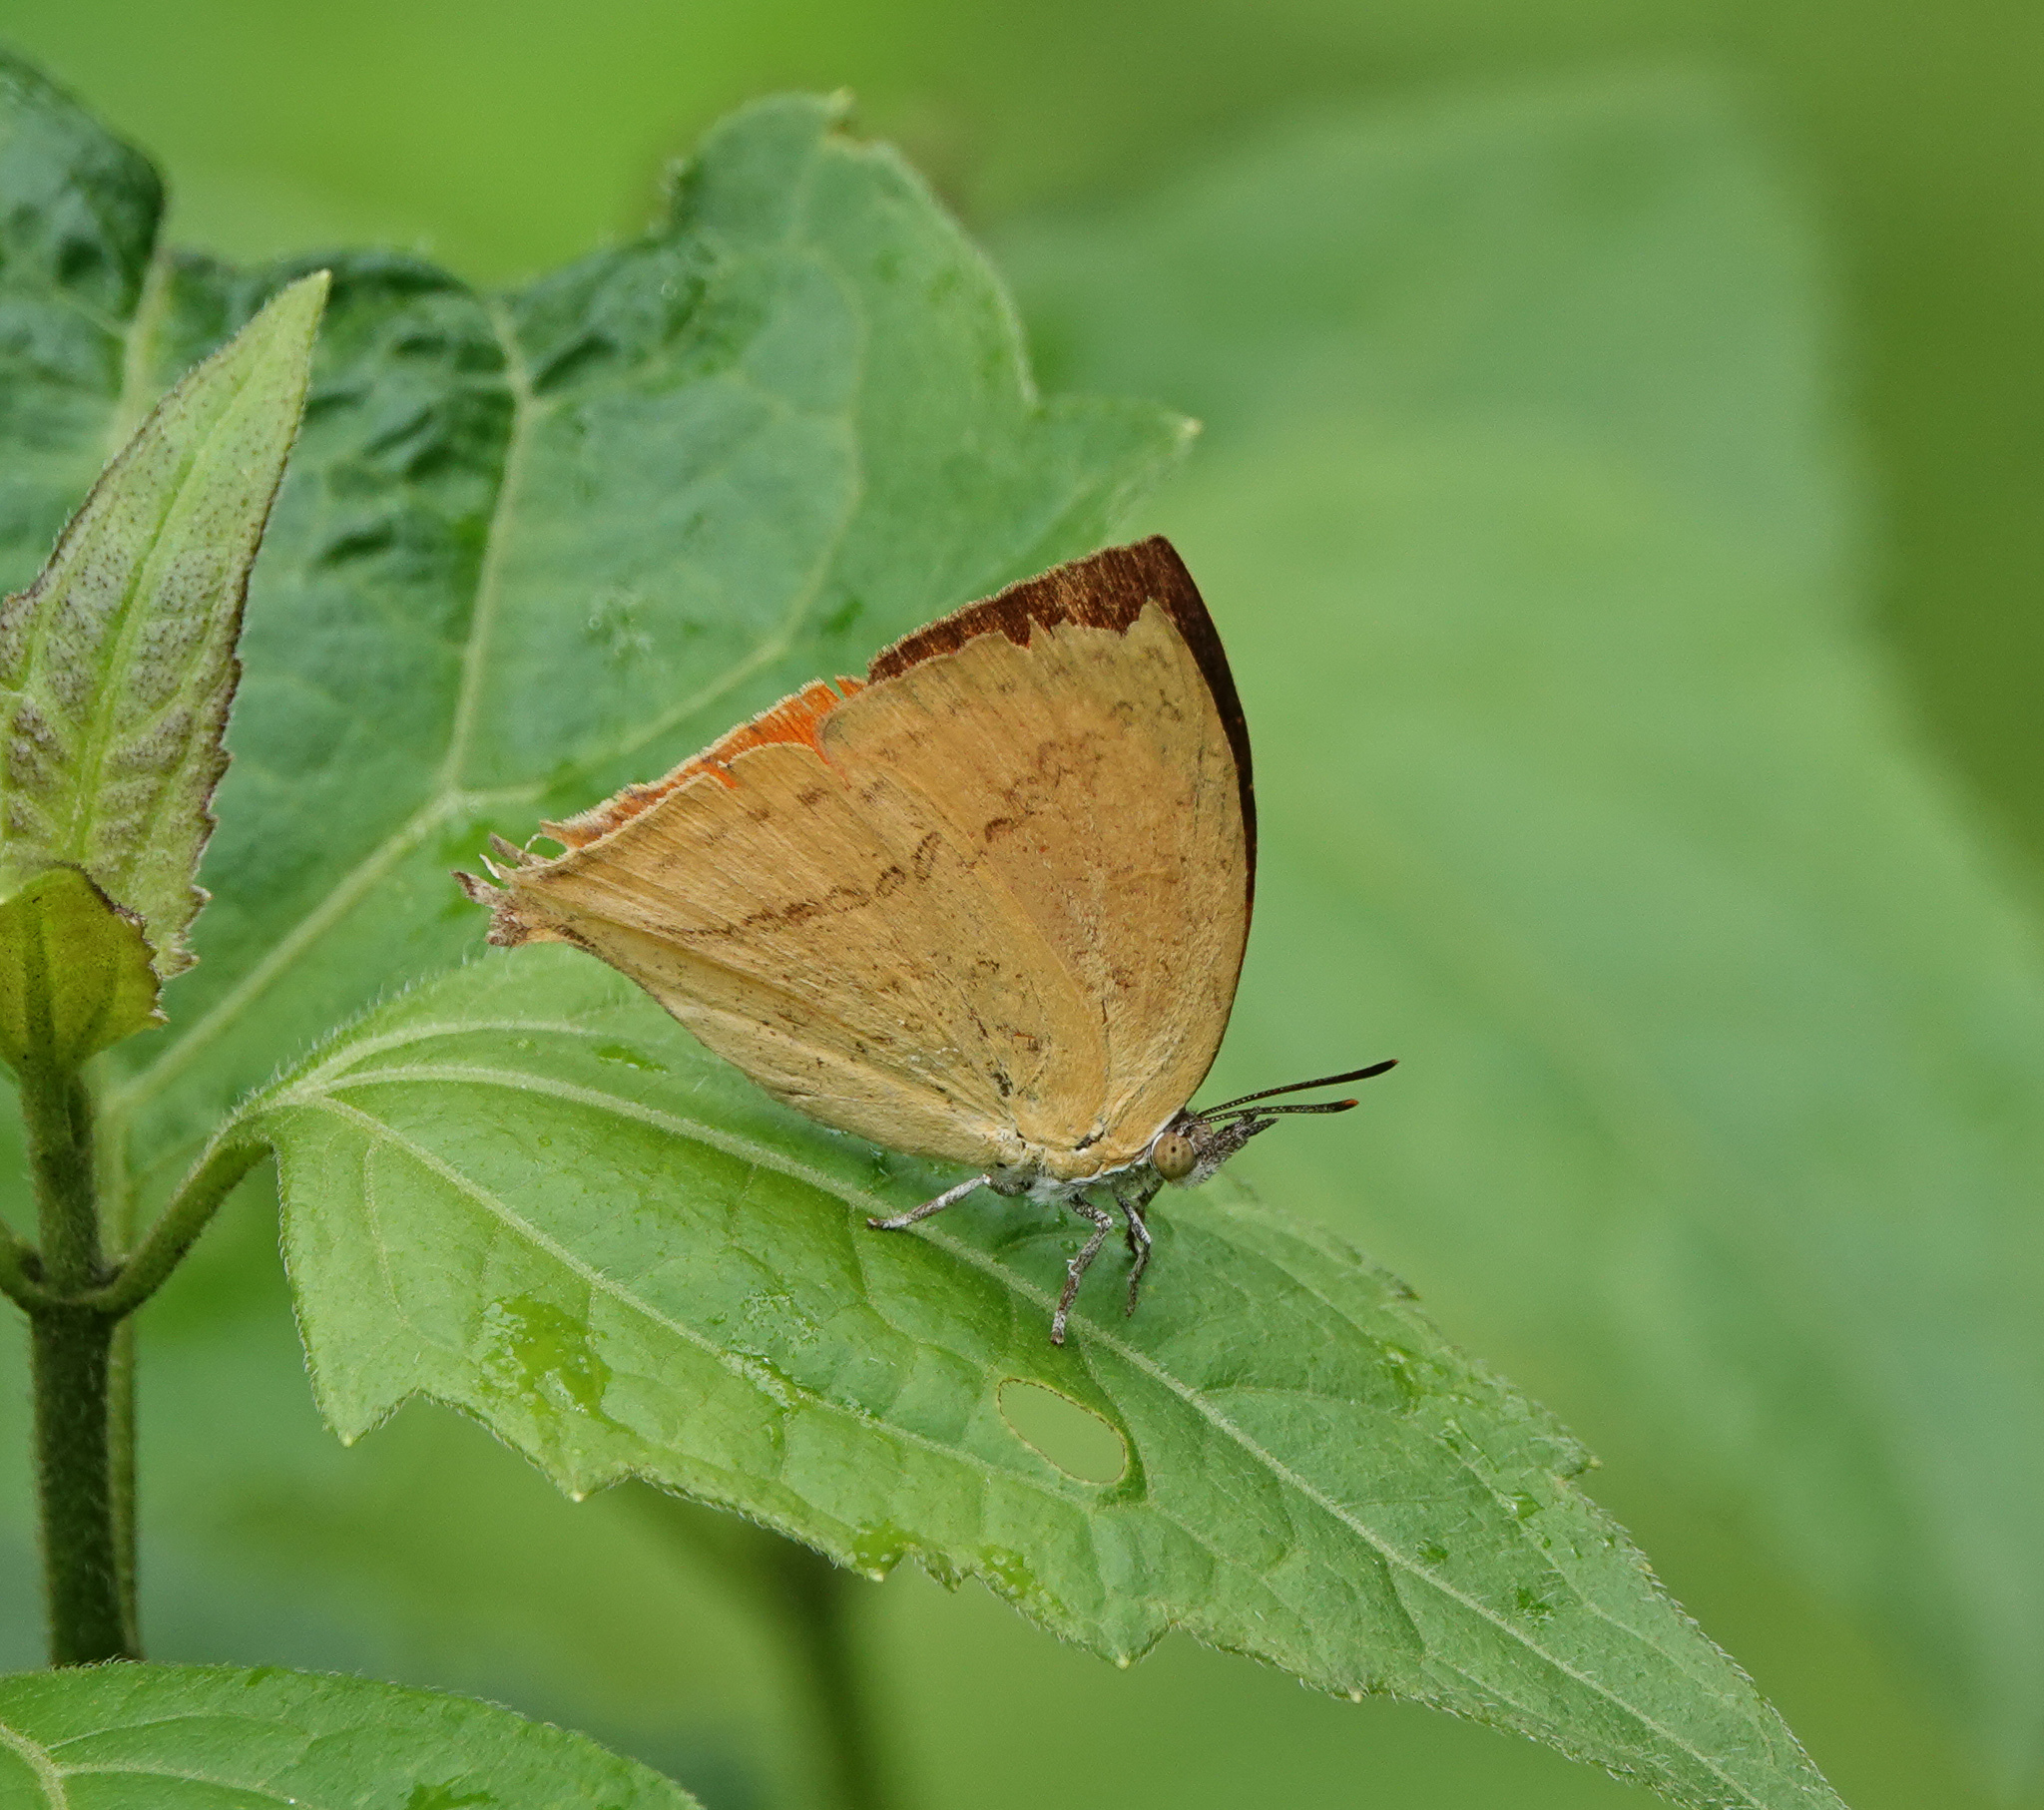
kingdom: Animalia
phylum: Arthropoda
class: Insecta
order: Lepidoptera
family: Lycaenidae
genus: Loxura
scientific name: Loxura atymnus
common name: Common yamfly
